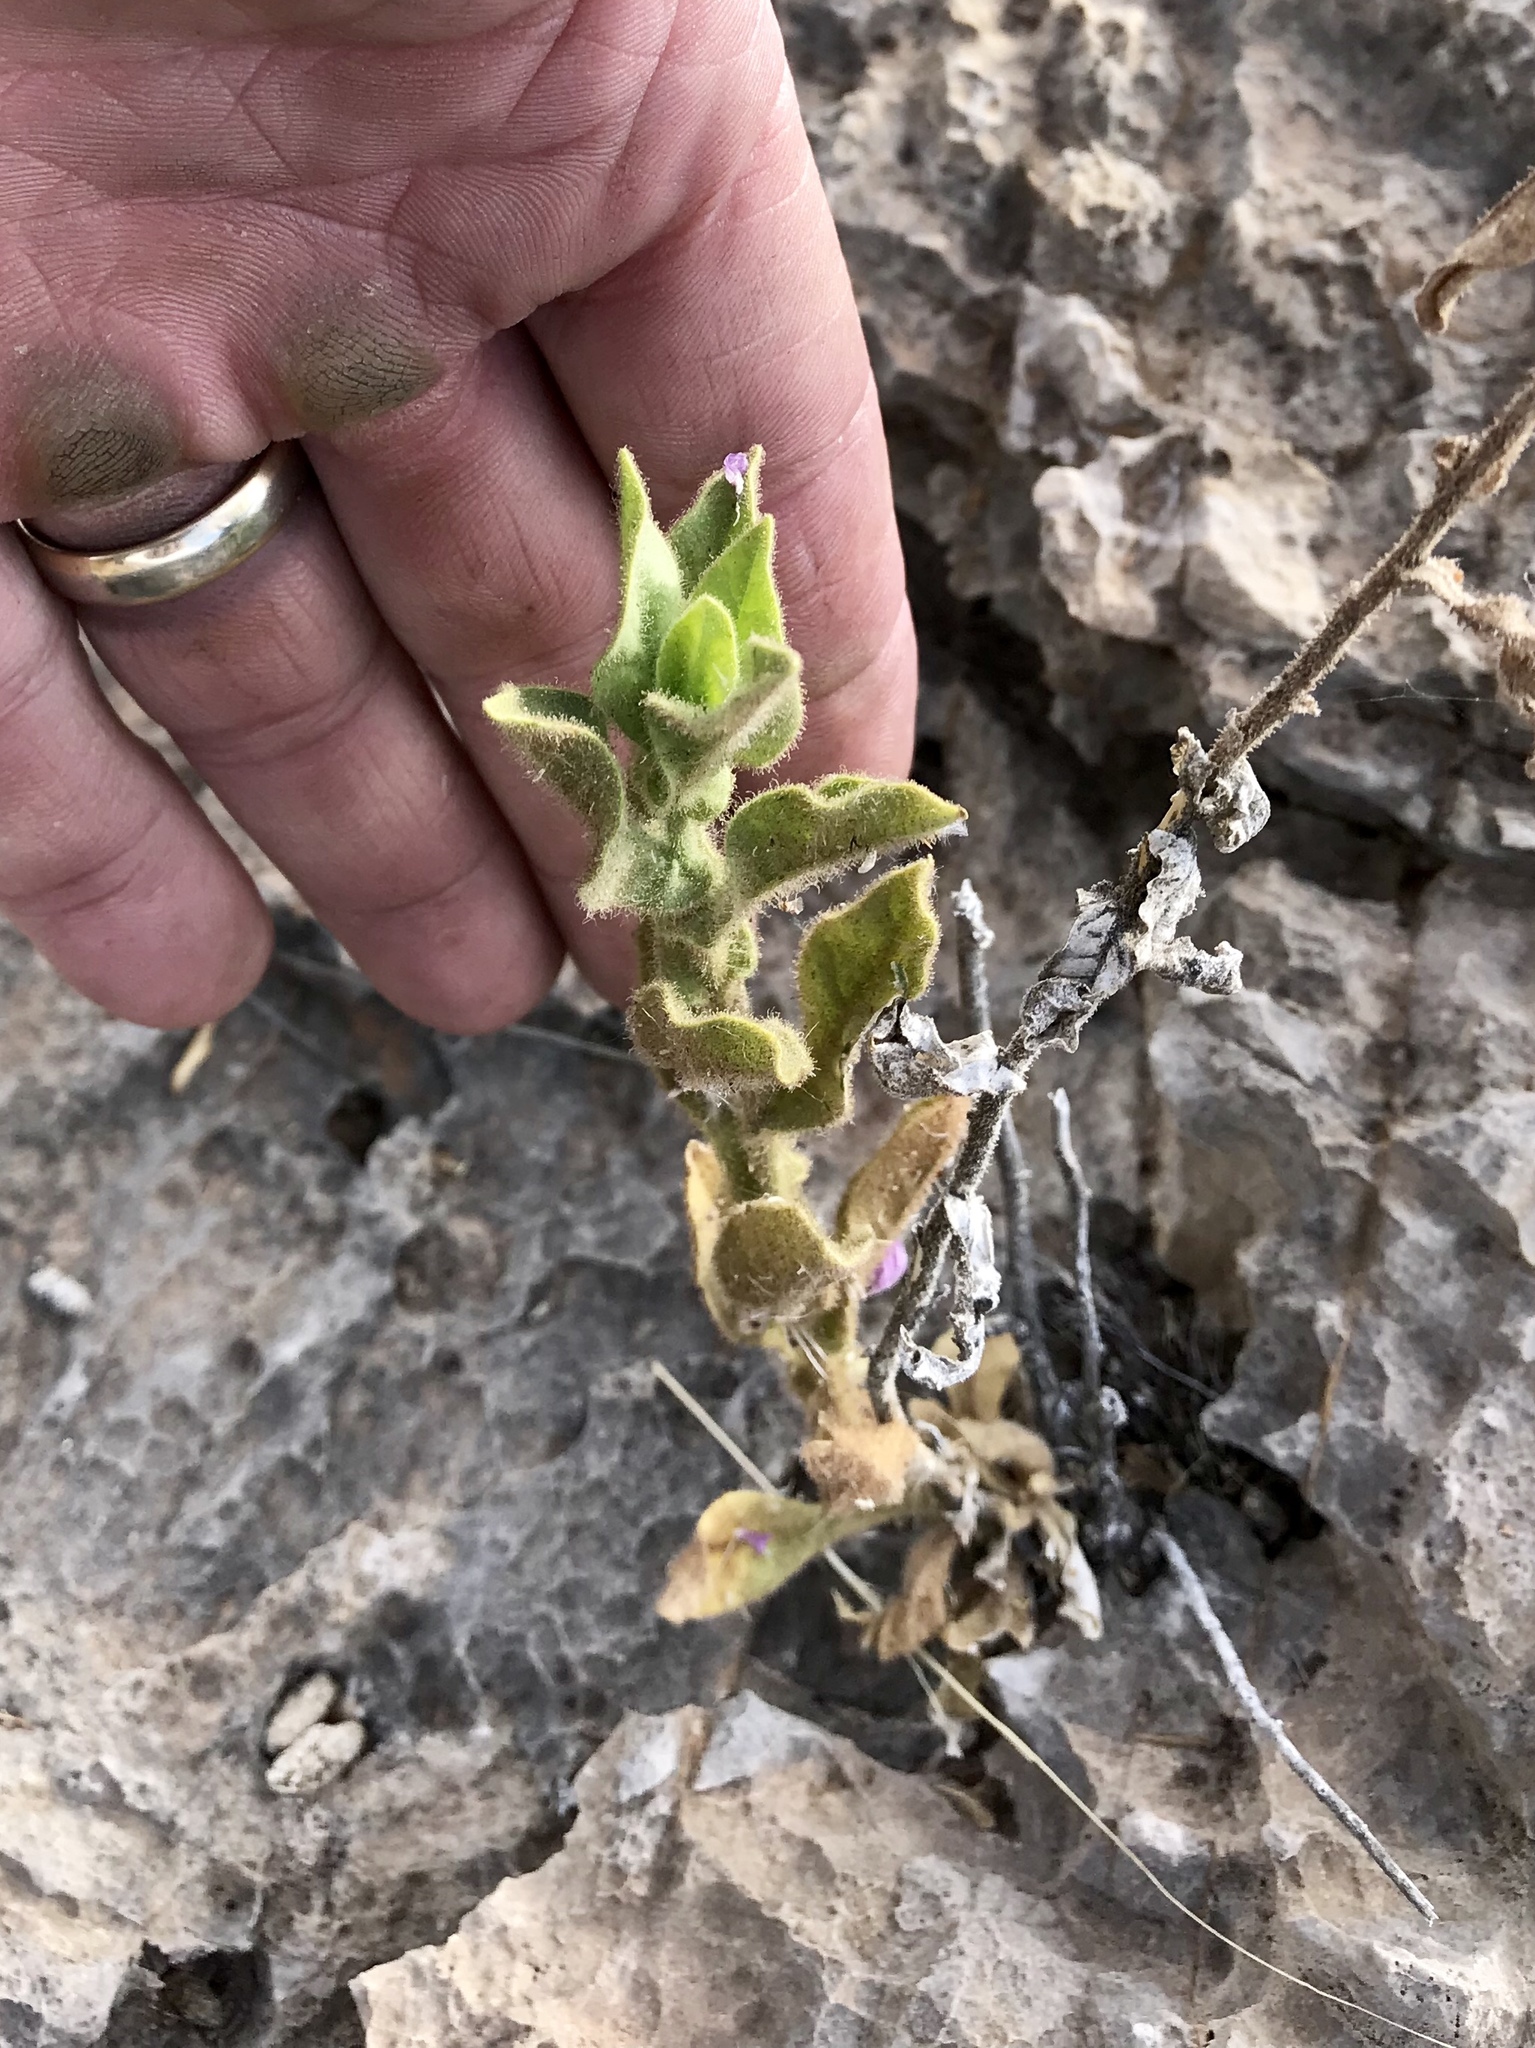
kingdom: Plantae
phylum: Tracheophyta
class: Magnoliopsida
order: Solanales
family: Solanaceae
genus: Nicotiana
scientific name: Nicotiana obtusifolia
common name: Desert tobacco
